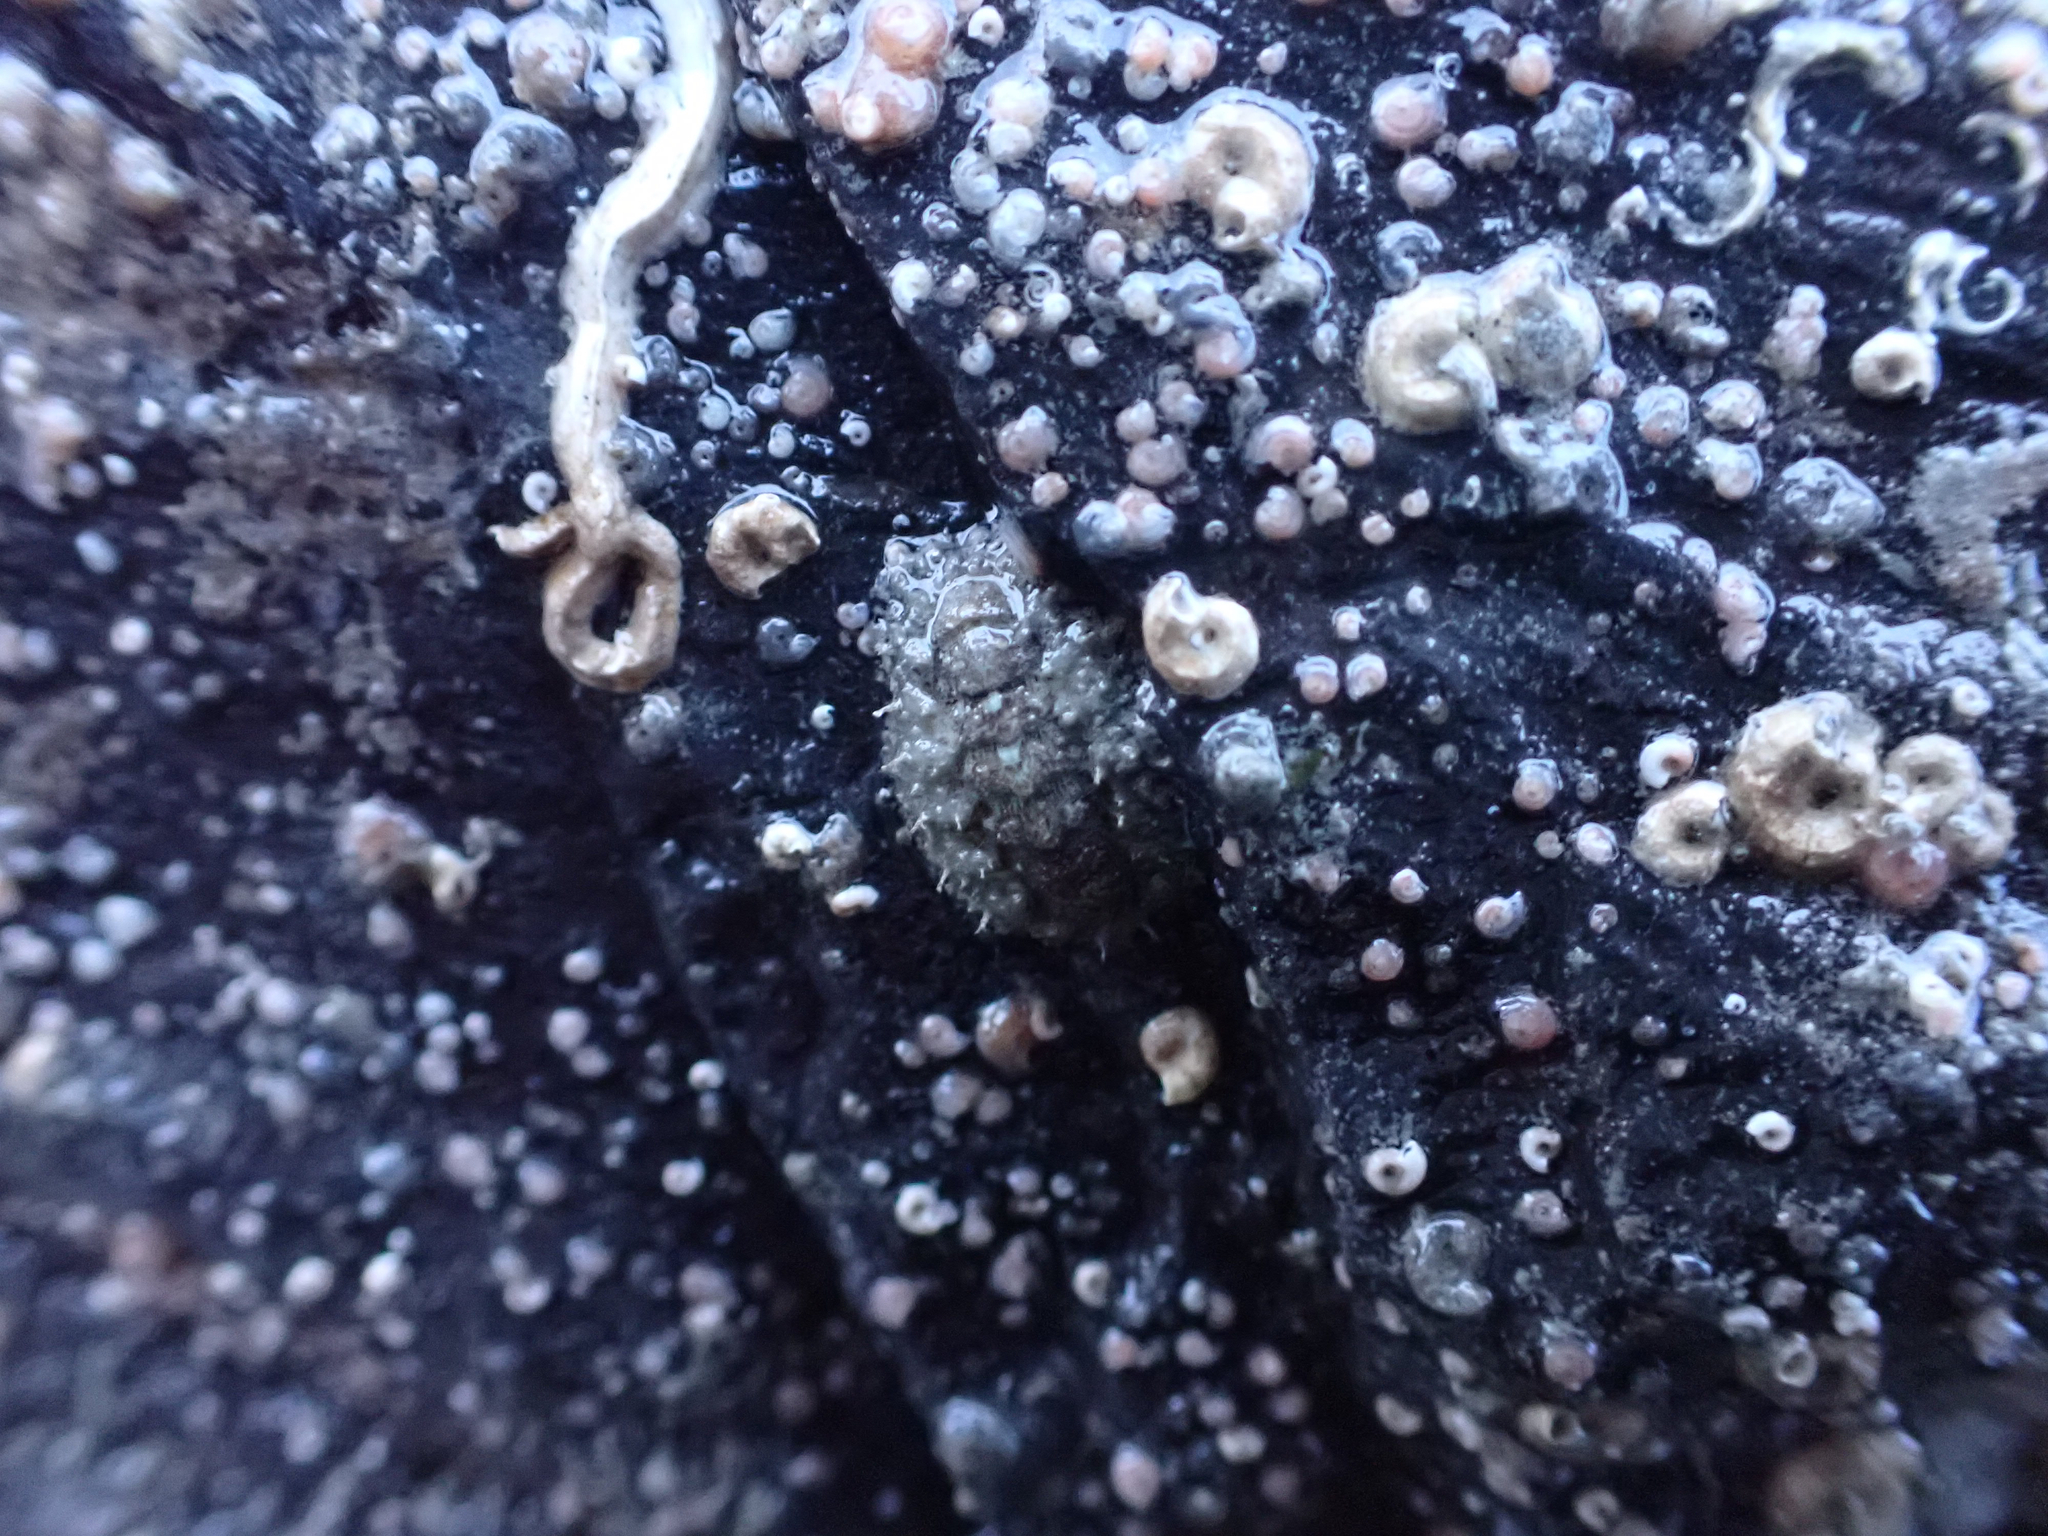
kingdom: Animalia
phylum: Mollusca
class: Polyplacophora
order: Chitonida
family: Mopaliidae
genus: Mopalia
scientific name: Mopalia ciliata
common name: Hairy chiton
